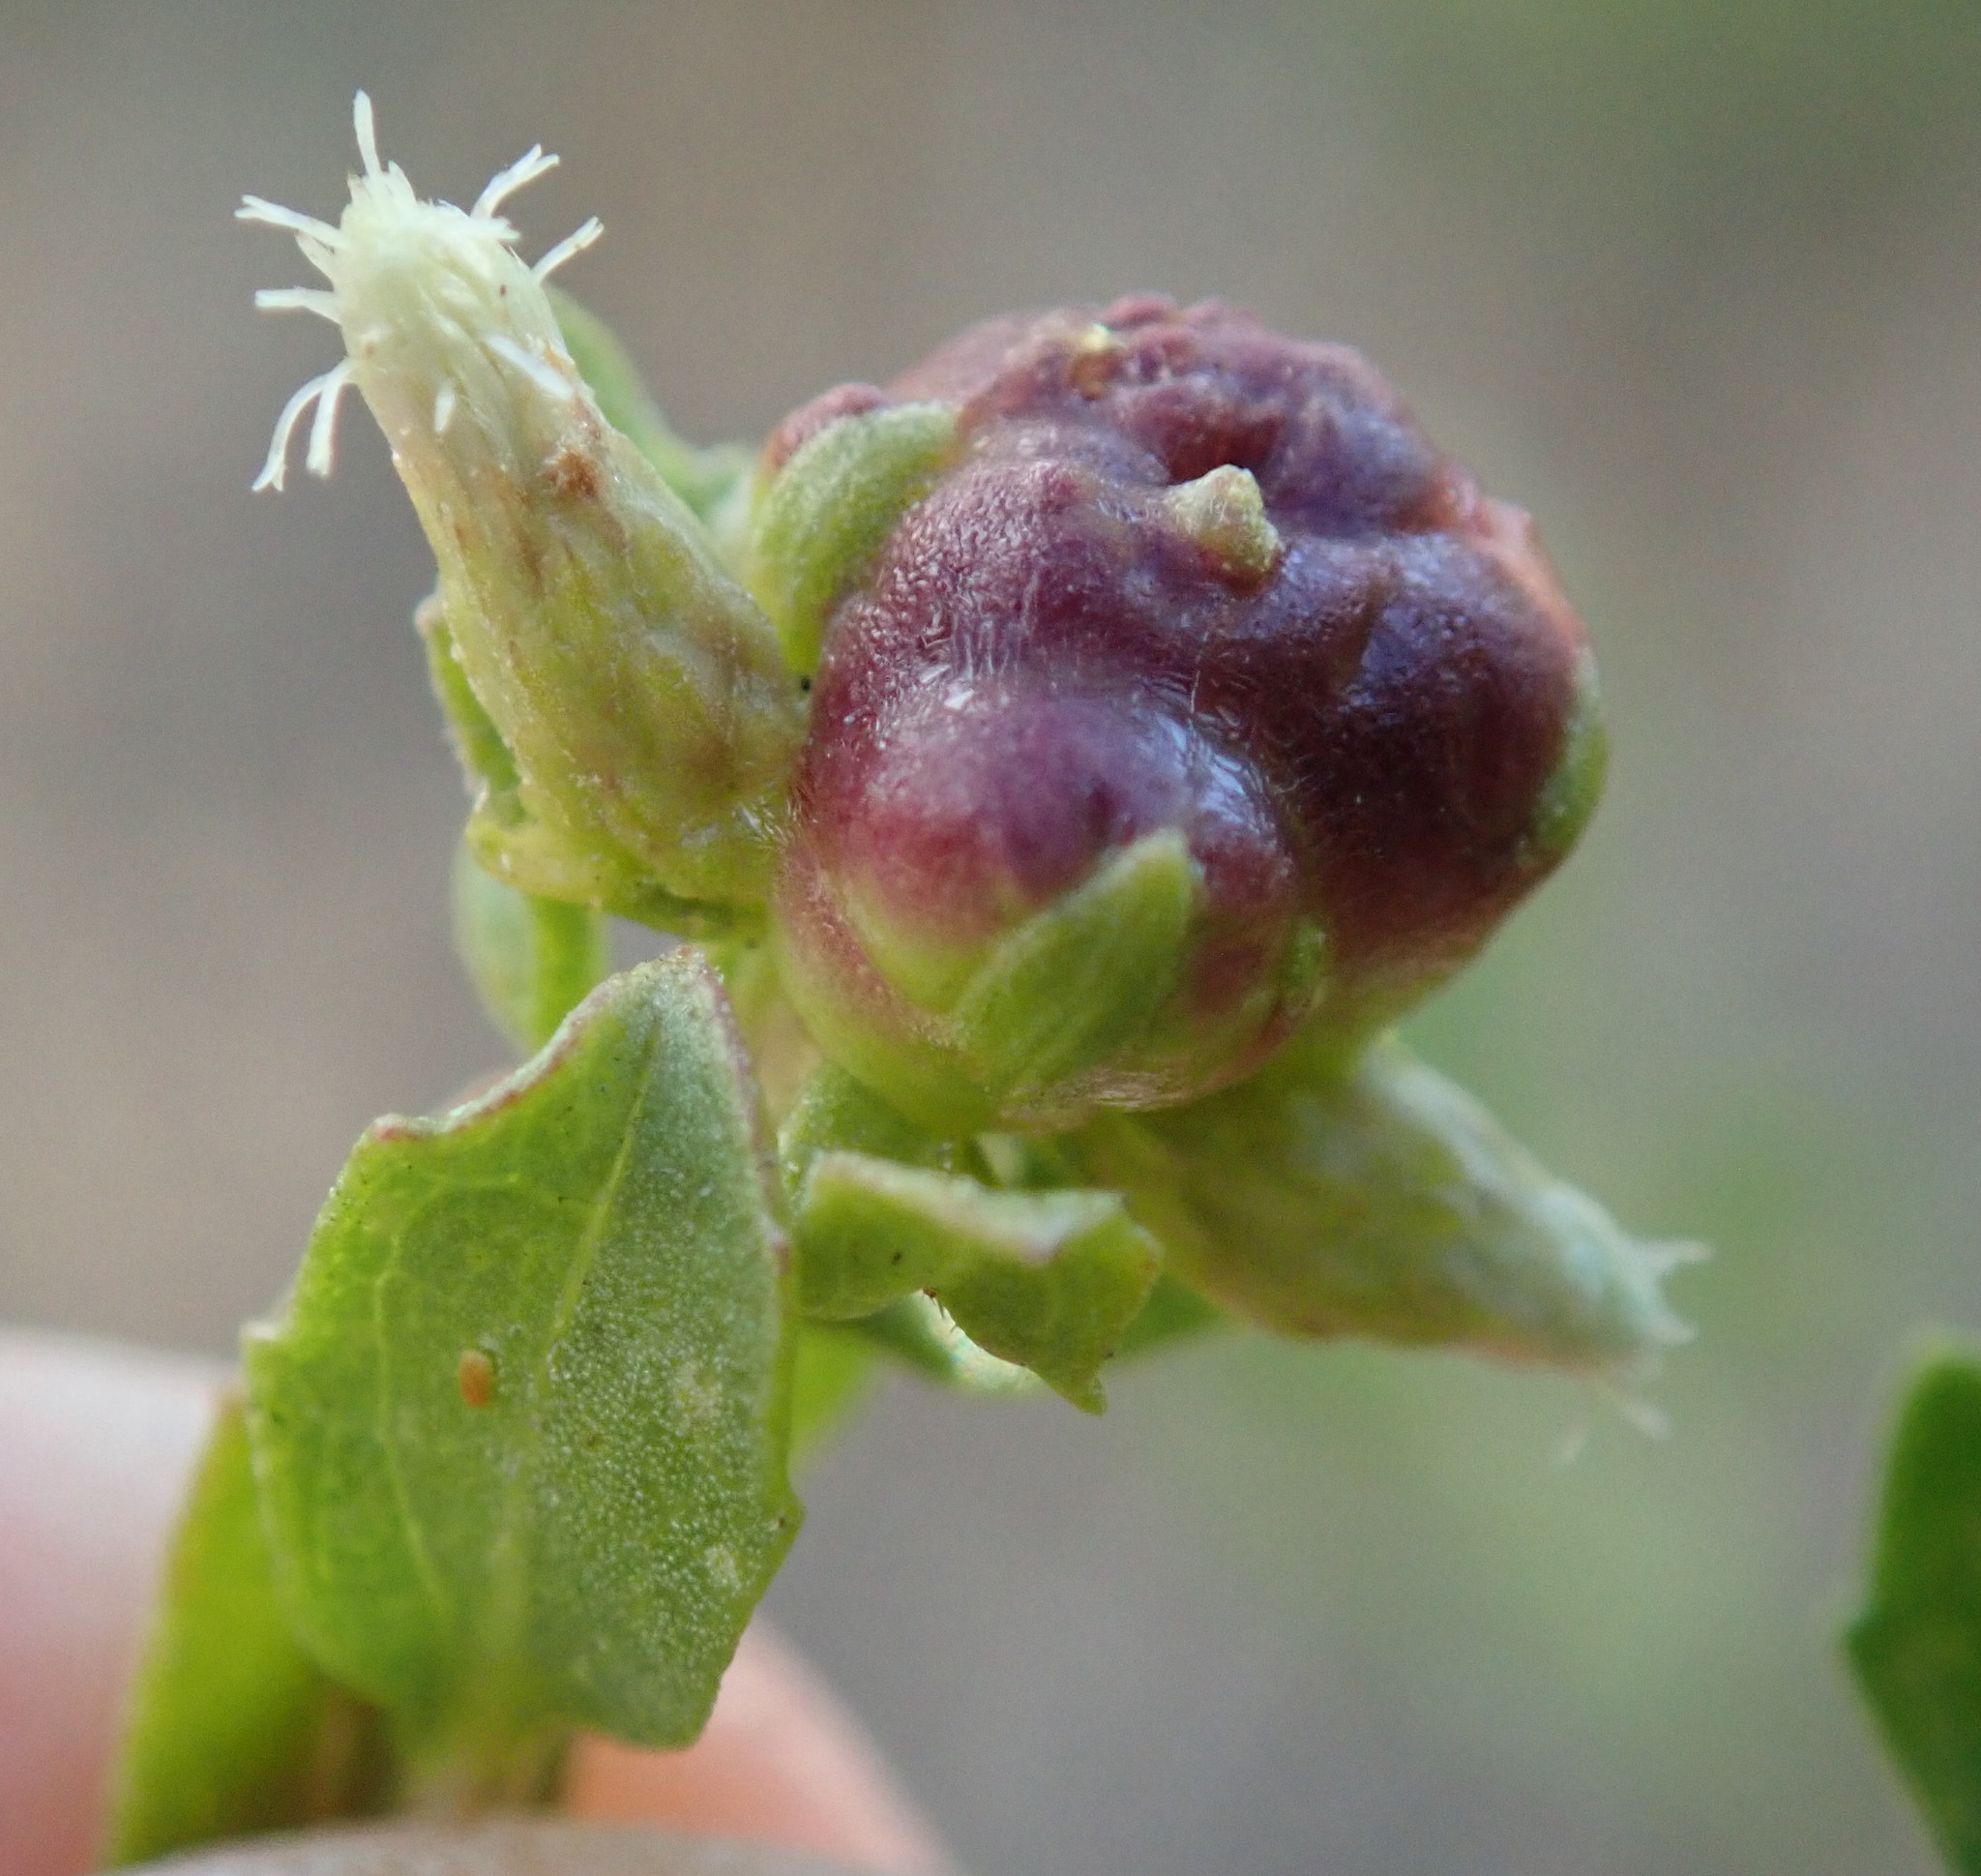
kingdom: Animalia
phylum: Arthropoda
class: Insecta
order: Diptera
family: Cecidomyiidae
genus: Rhopalomyia
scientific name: Rhopalomyia californica
